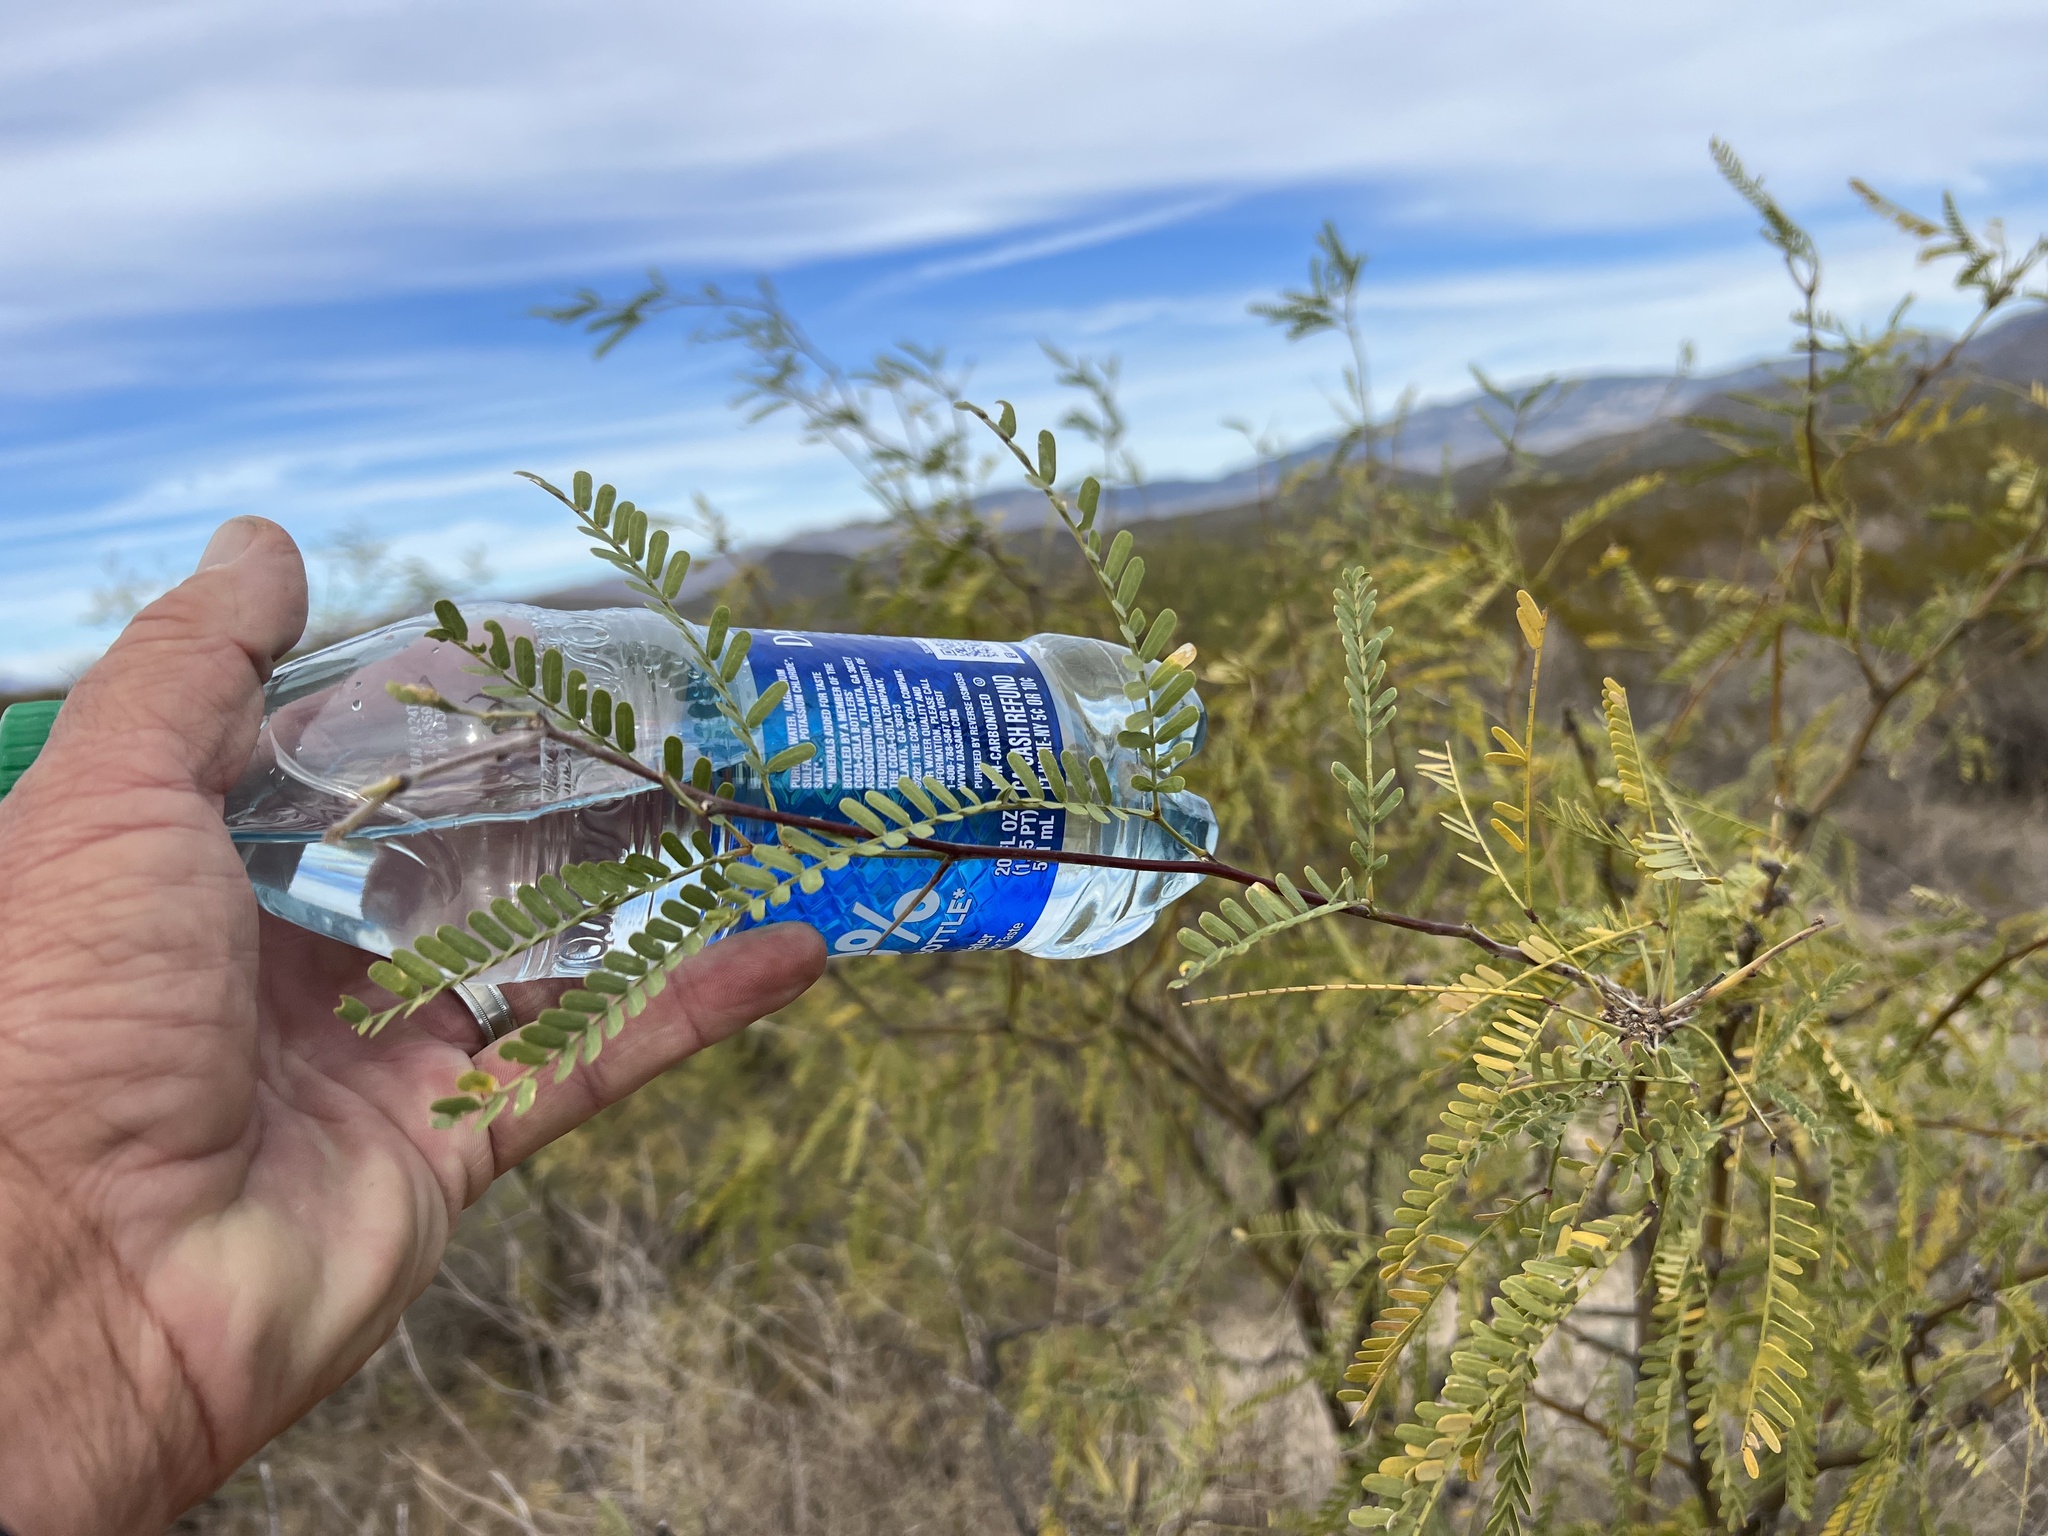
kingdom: Plantae
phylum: Tracheophyta
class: Magnoliopsida
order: Fabales
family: Fabaceae
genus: Prosopis
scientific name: Prosopis velutina
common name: Velvet mesquite
